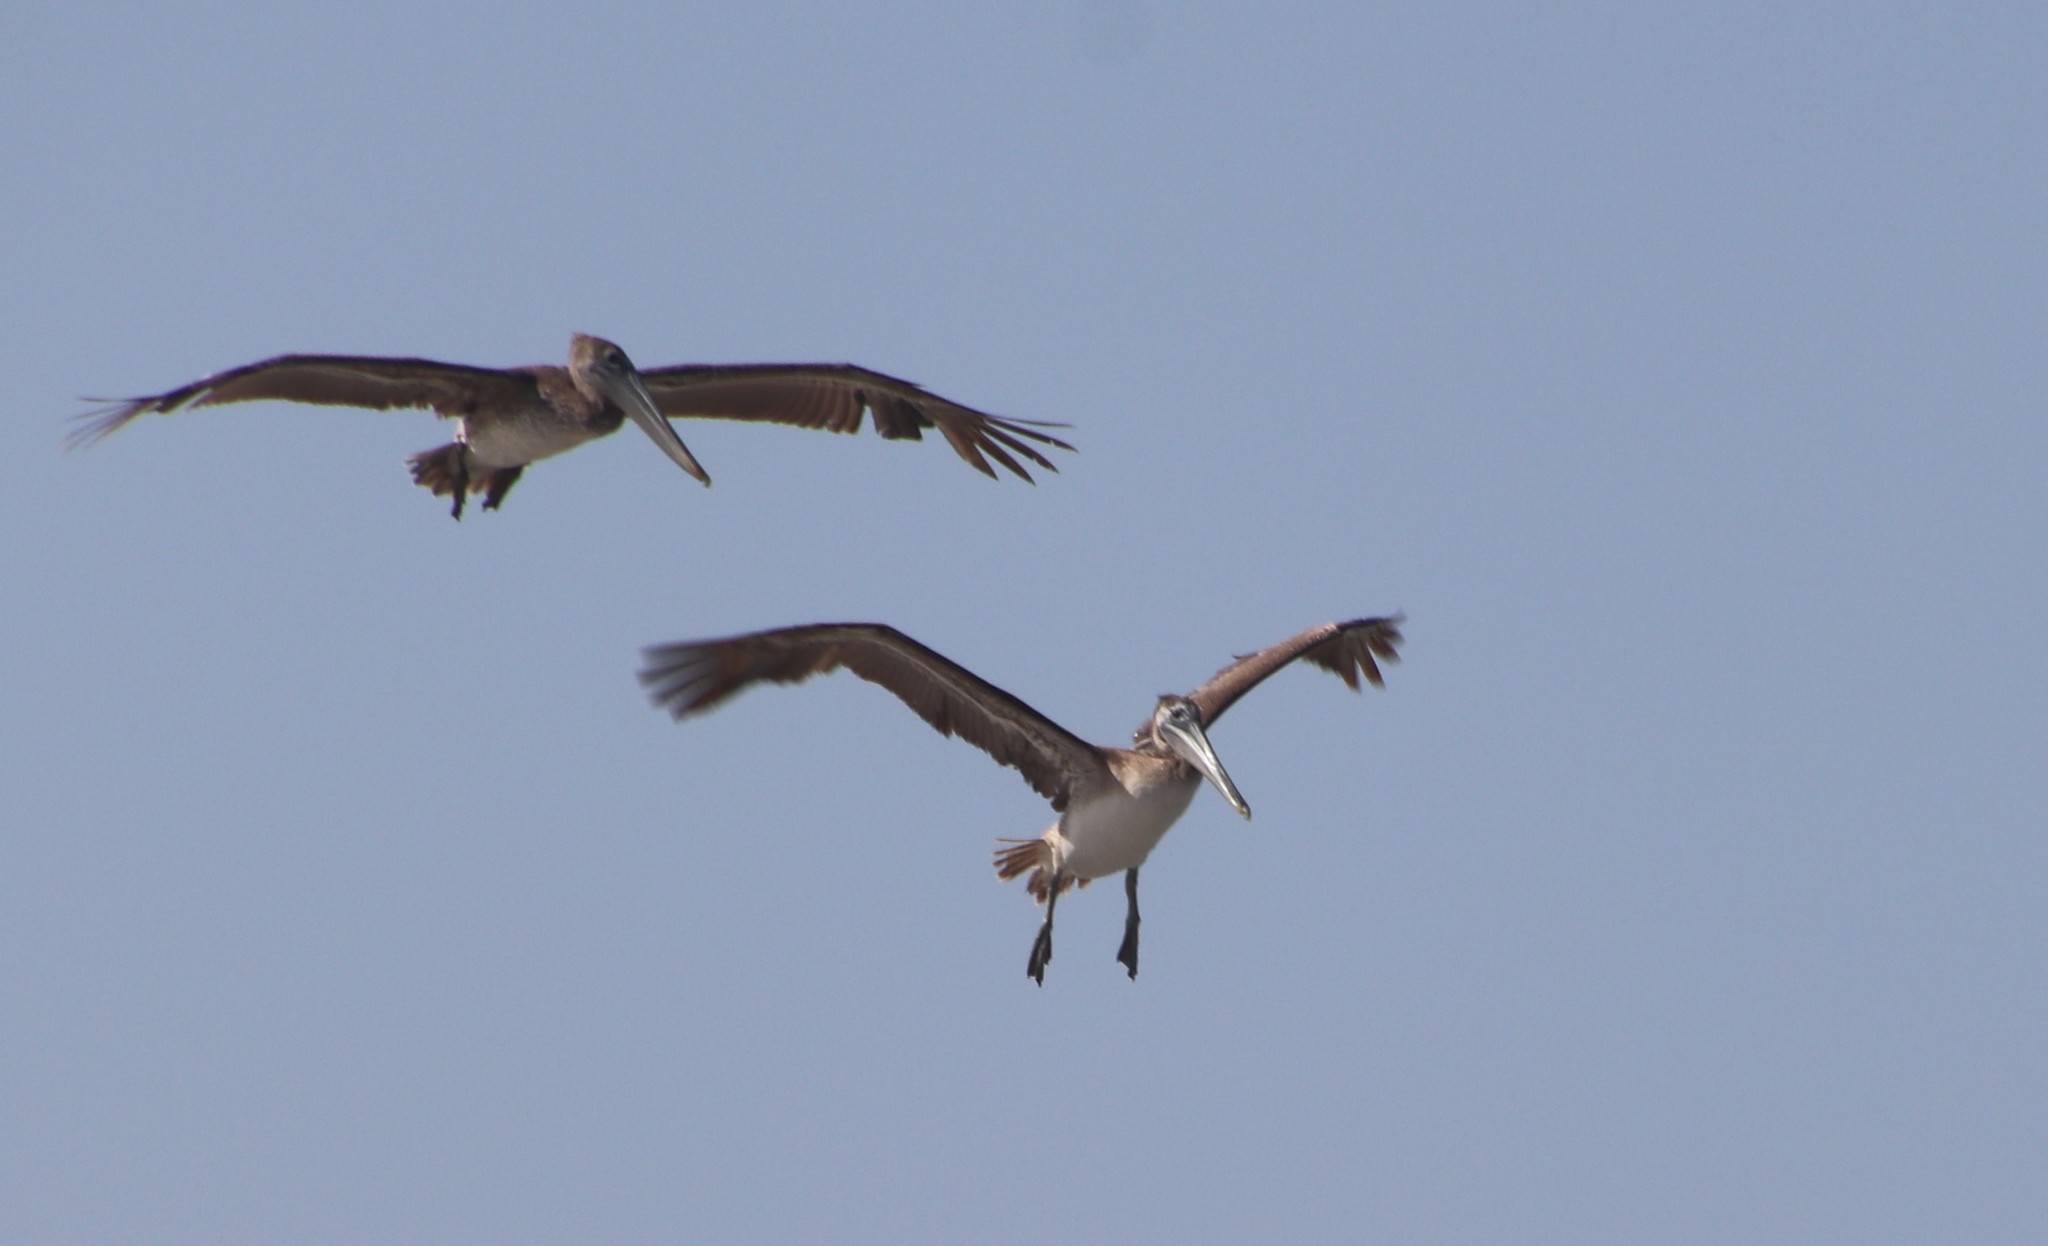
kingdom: Animalia
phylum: Chordata
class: Aves
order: Pelecaniformes
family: Pelecanidae
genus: Pelecanus
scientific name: Pelecanus occidentalis
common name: Brown pelican
